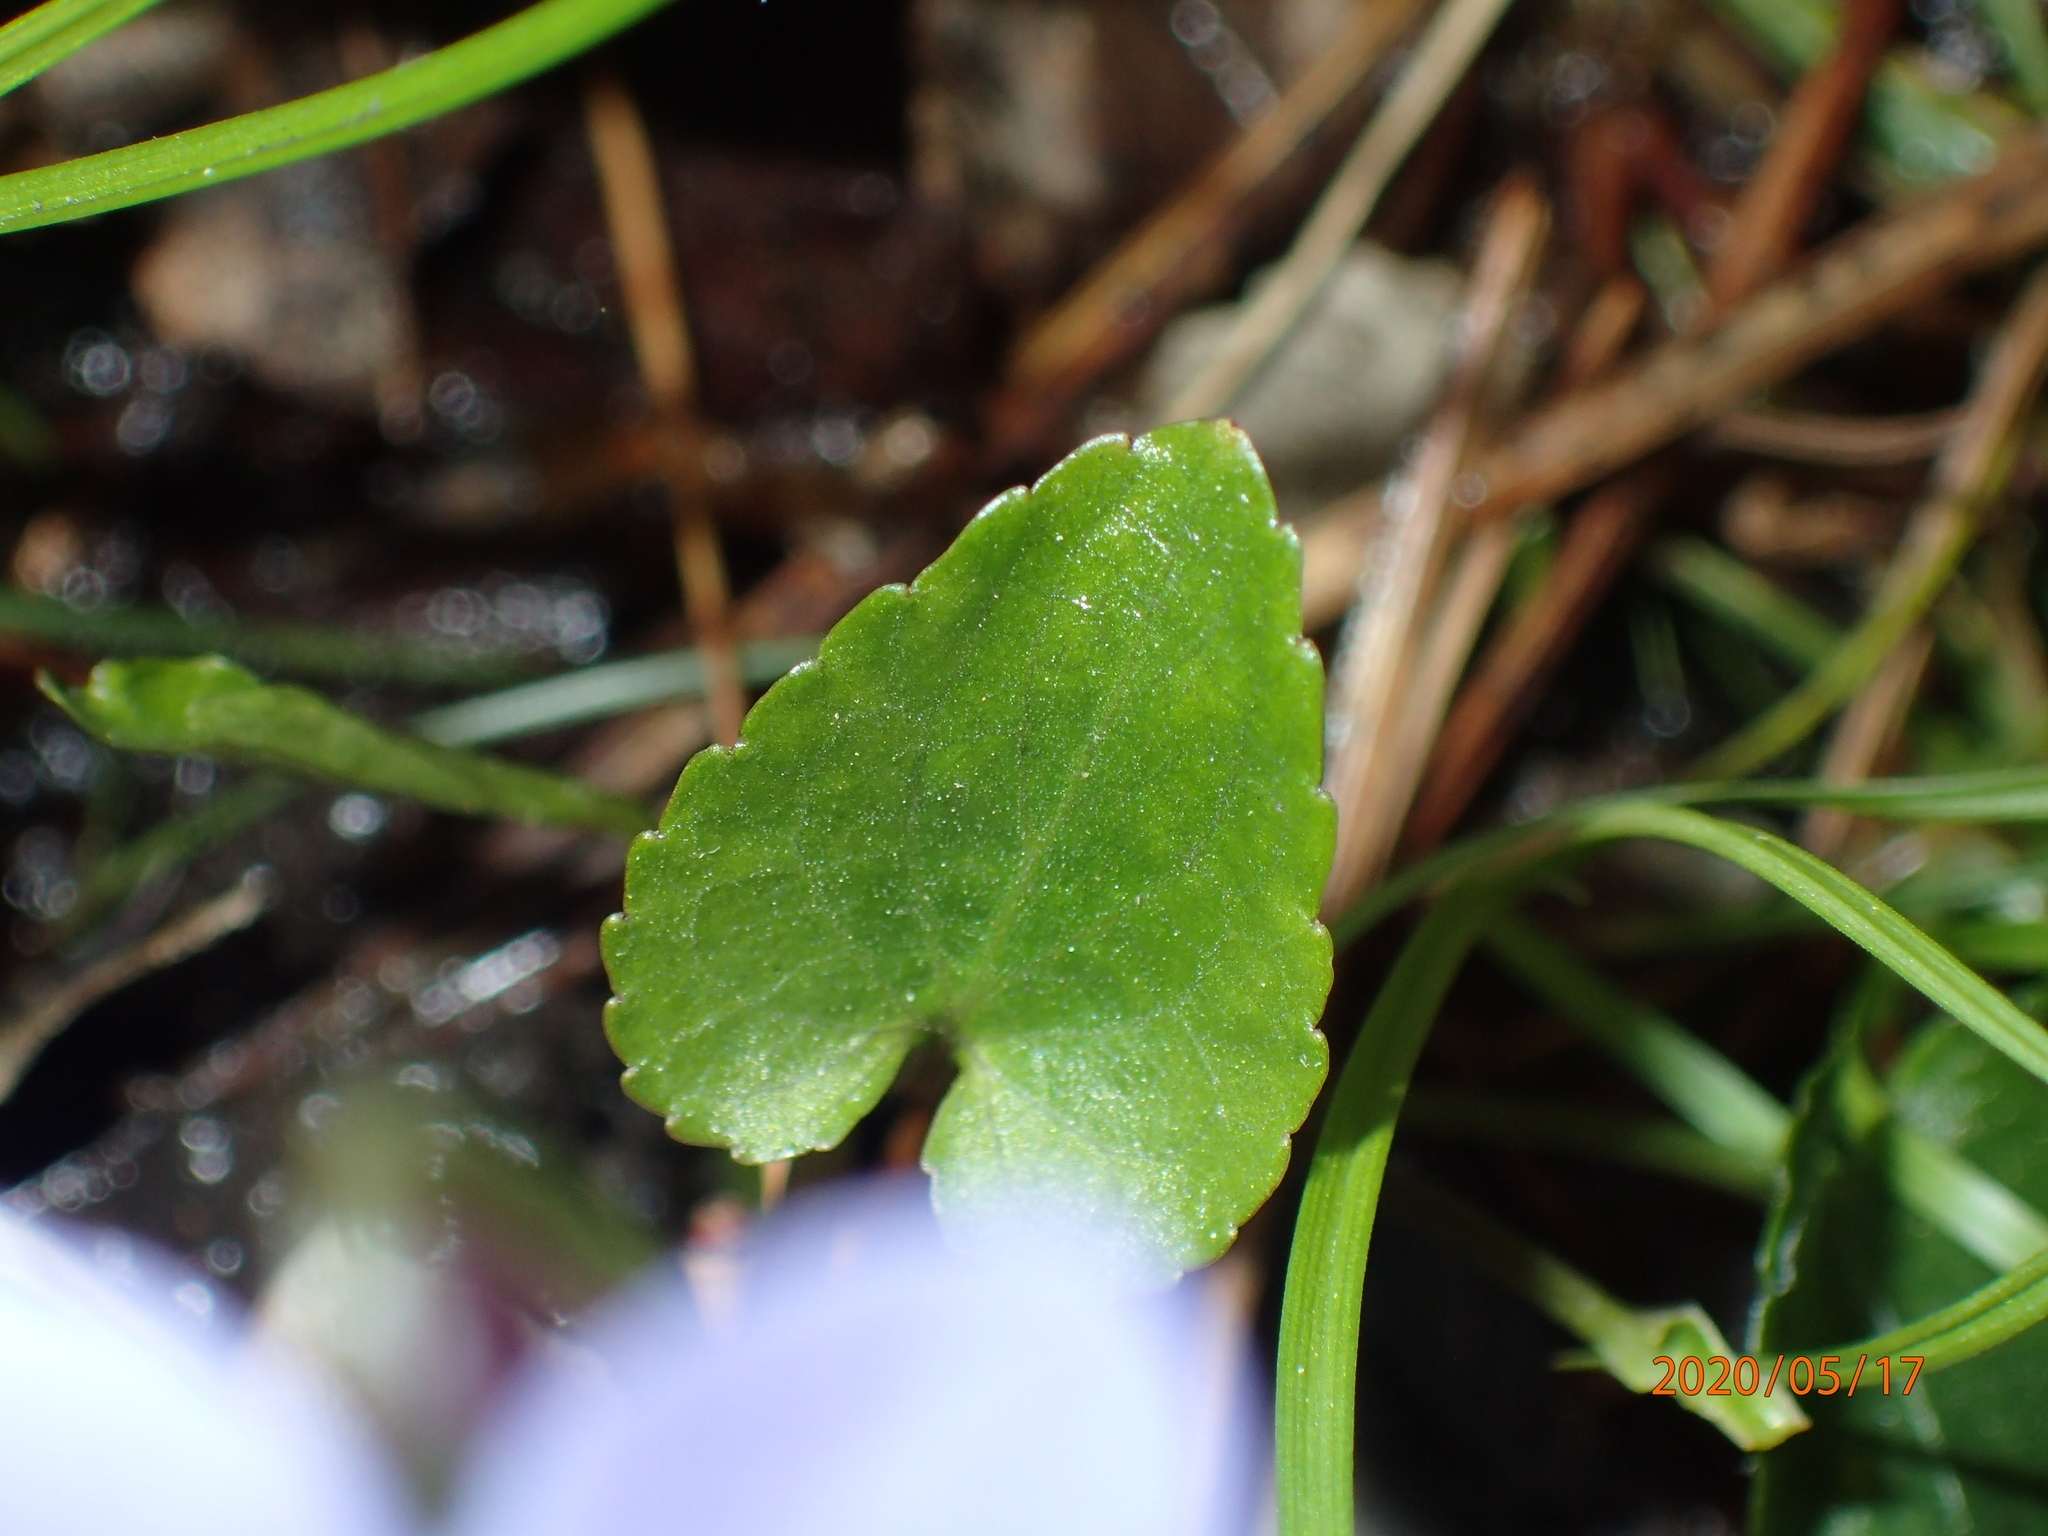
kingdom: Plantae
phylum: Tracheophyta
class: Magnoliopsida
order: Malpighiales
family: Violaceae
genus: Viola
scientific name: Viola cucullata
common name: Marsh blue violet
